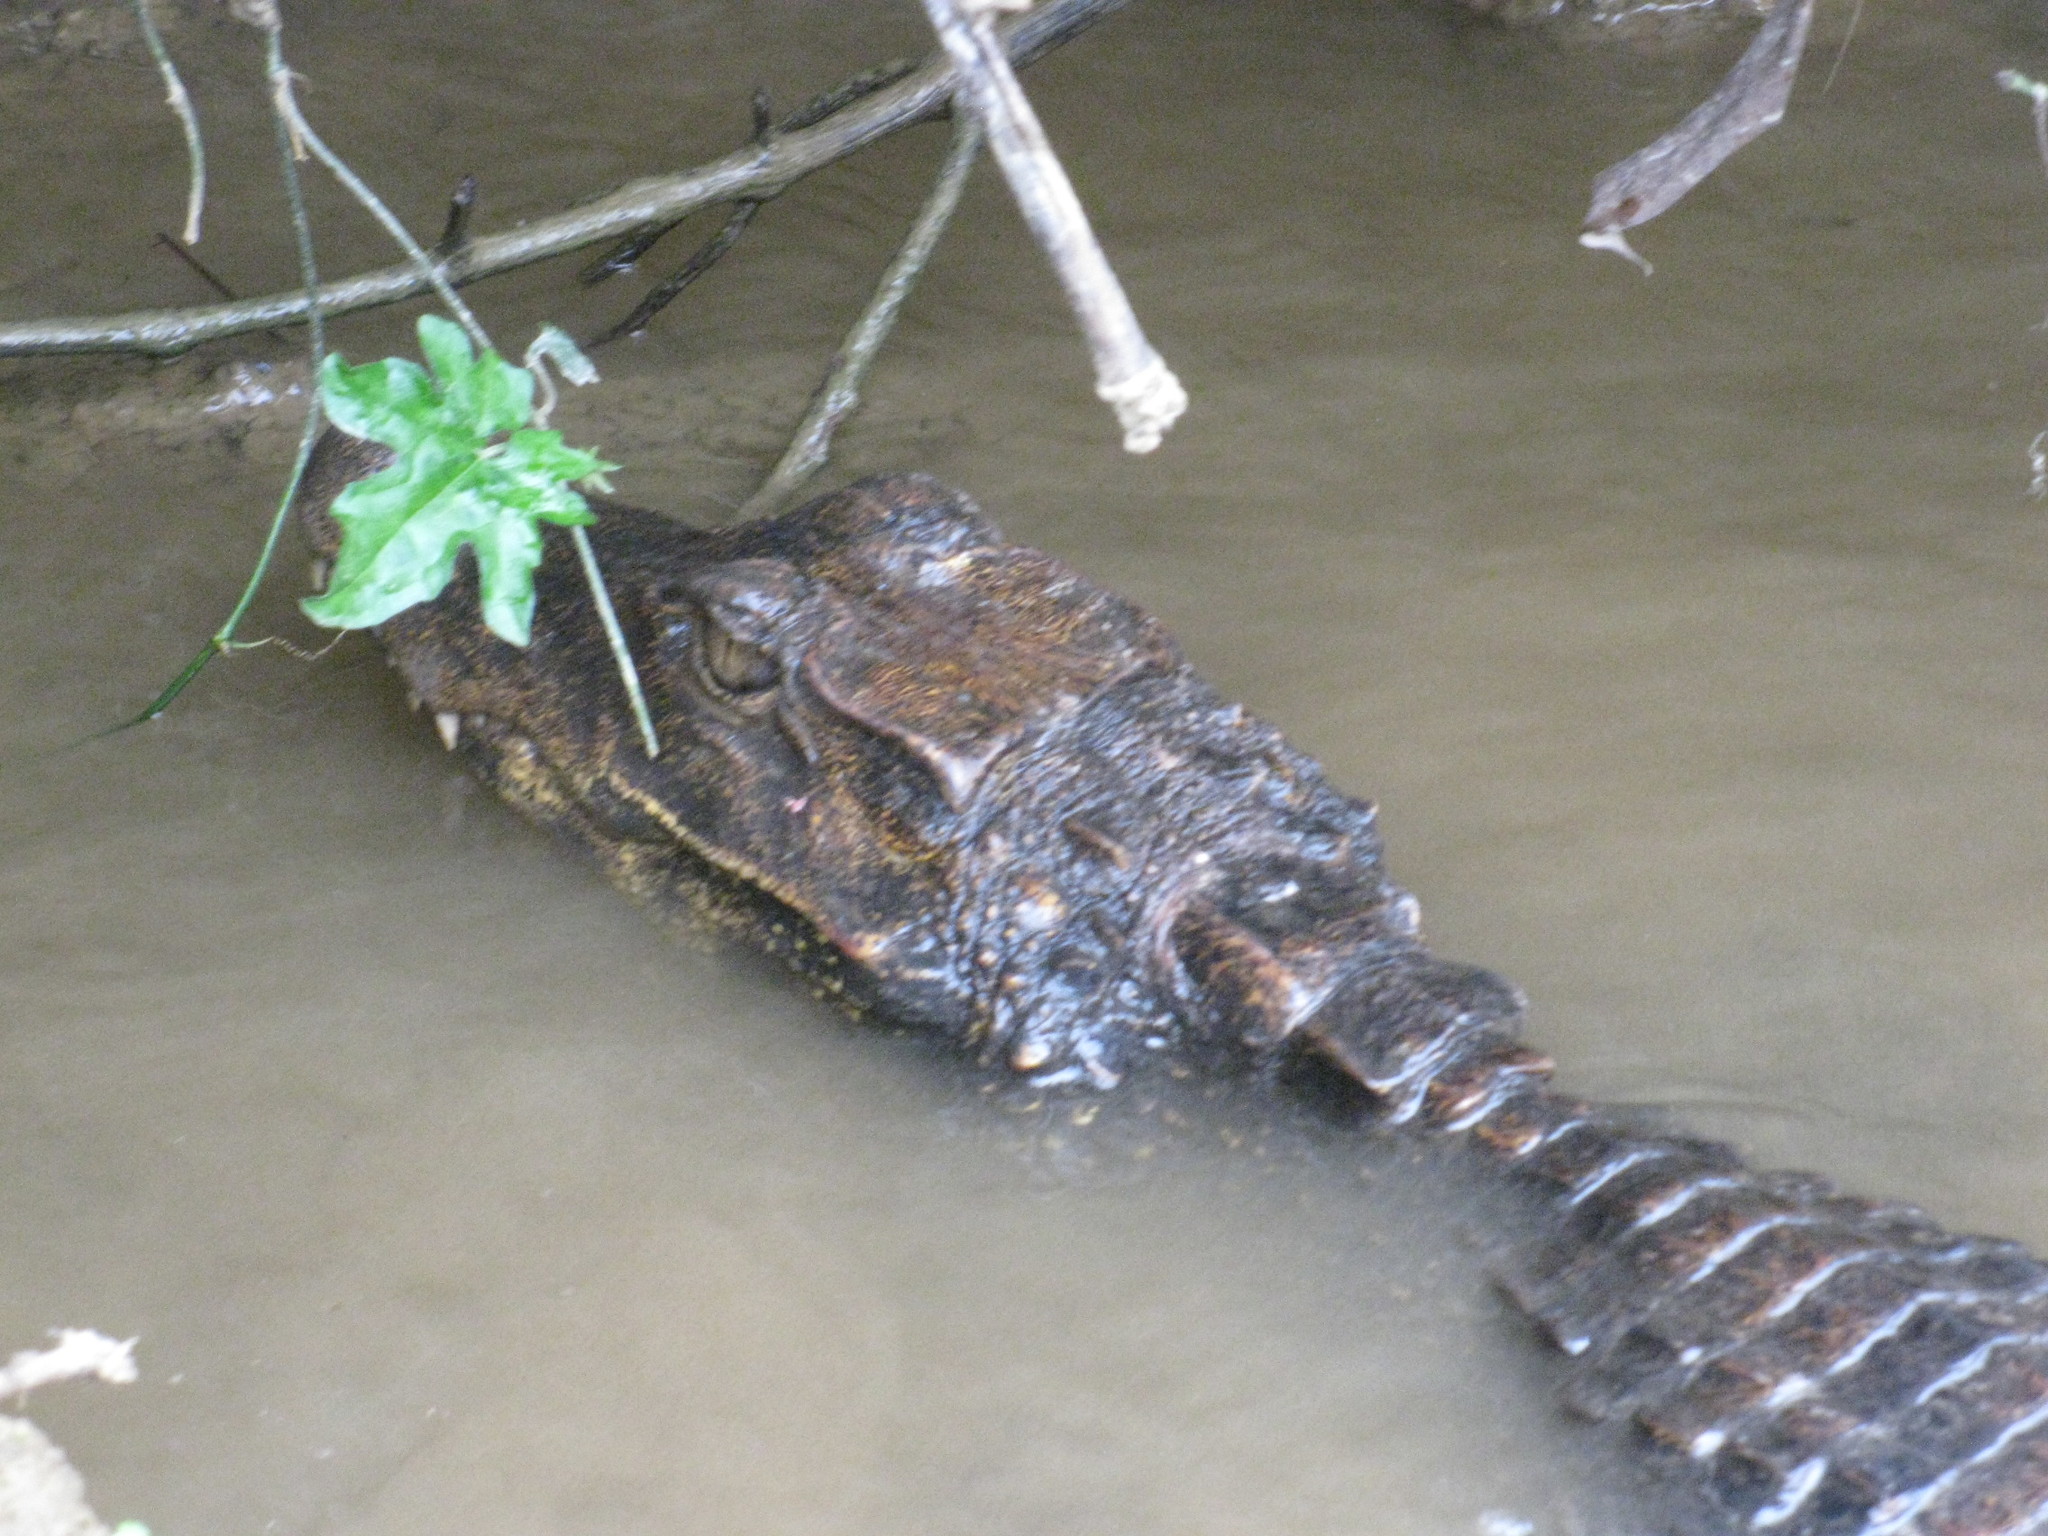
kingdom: Animalia
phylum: Chordata
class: Crocodylia
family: Crocodylidae
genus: Osteolaemus
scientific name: Osteolaemus osborni
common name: Congo dwarf crocodile
